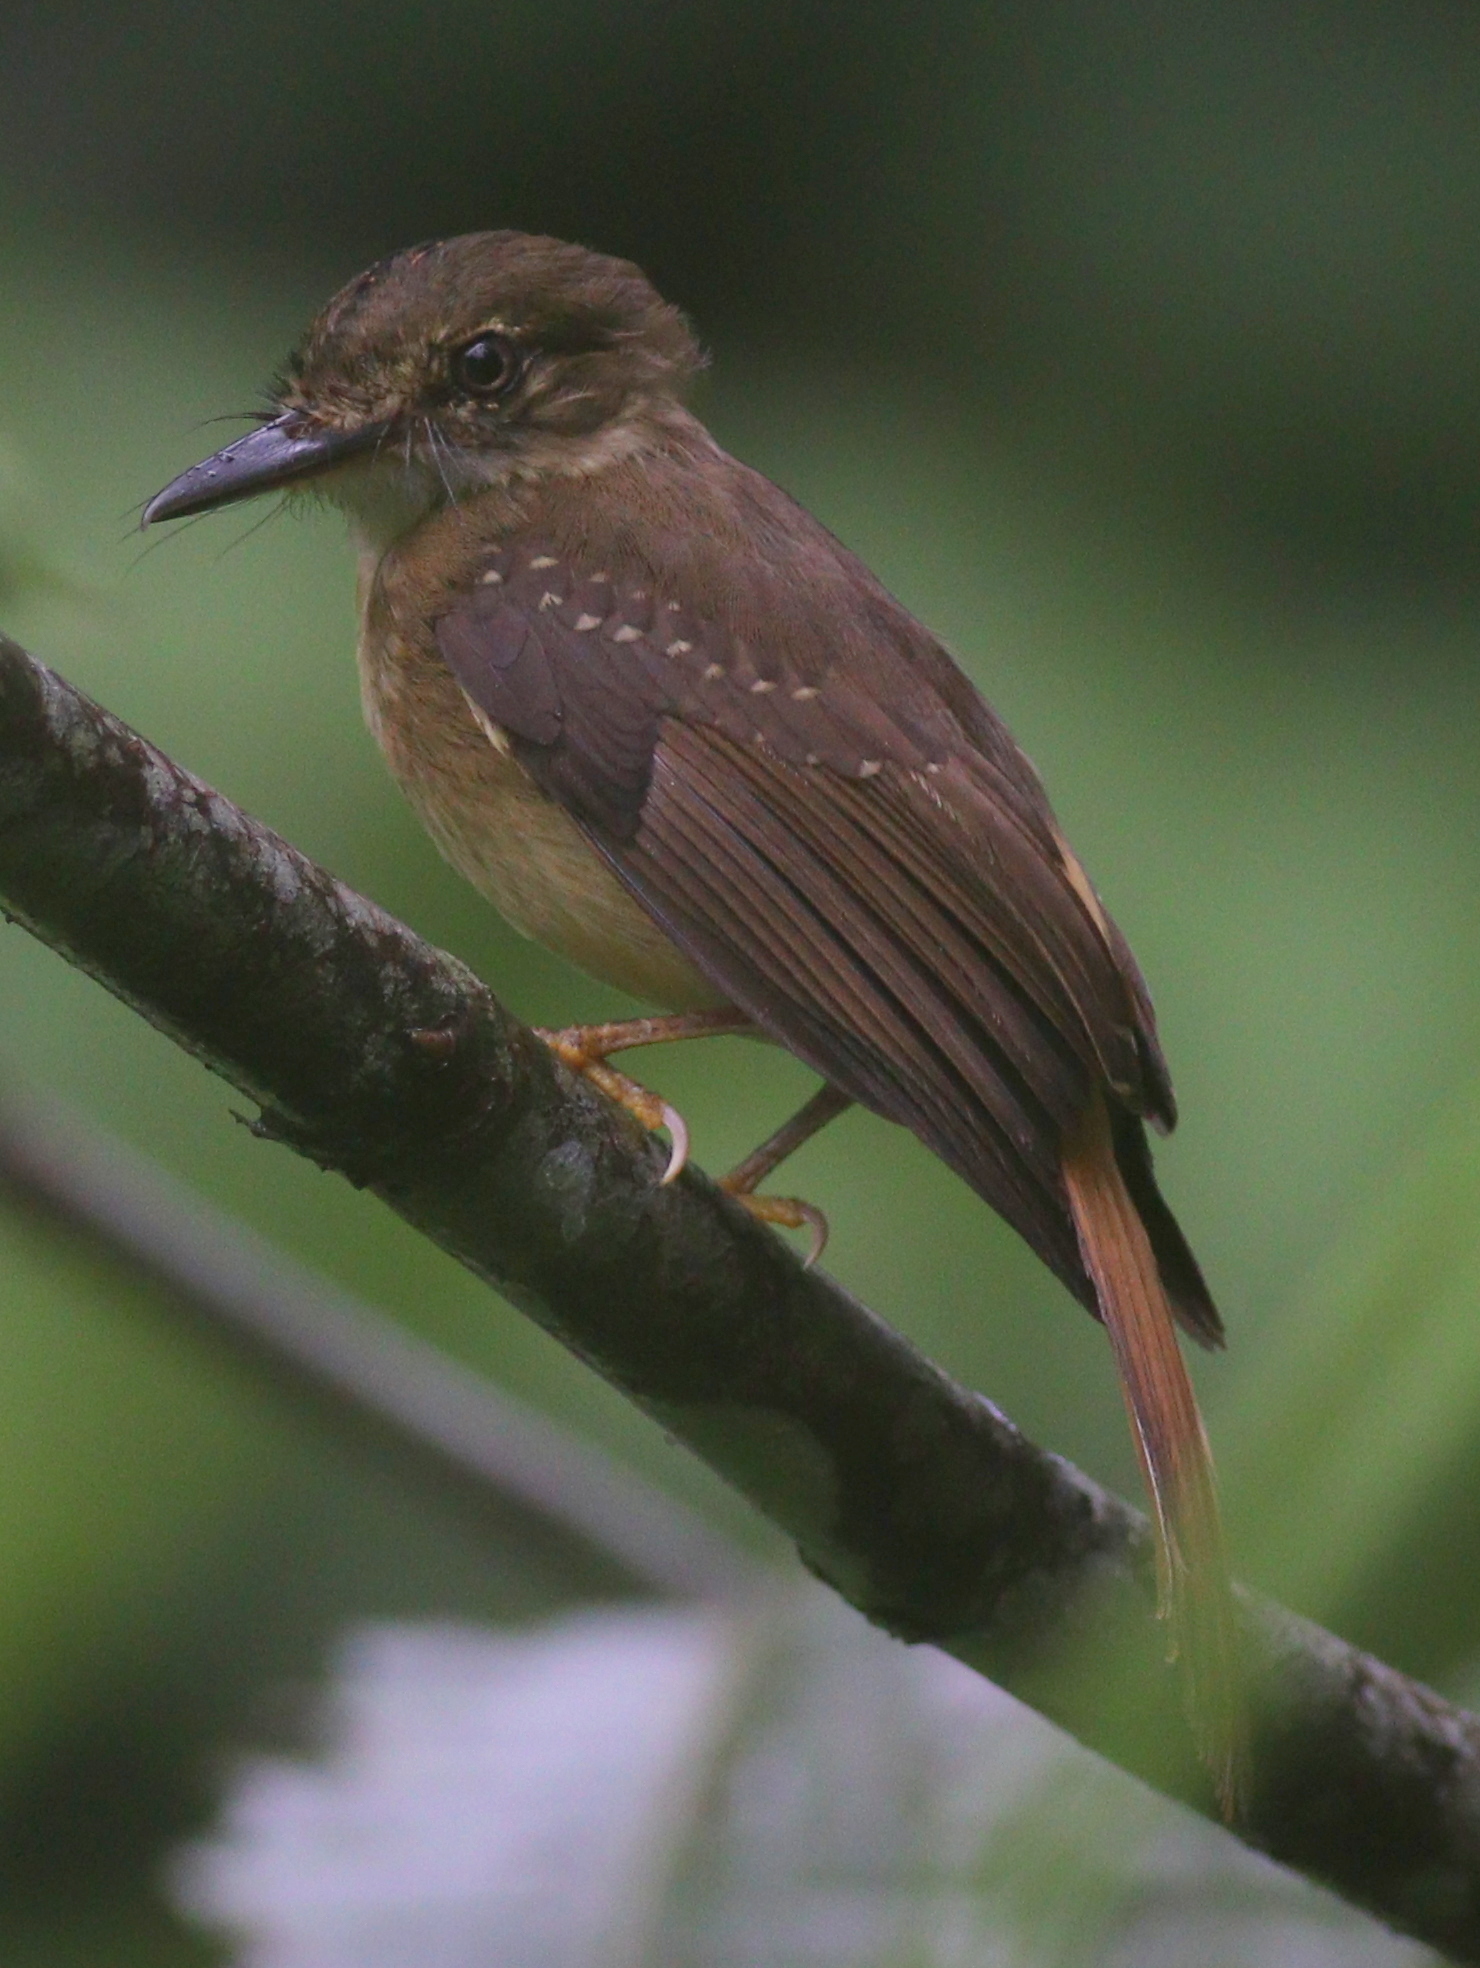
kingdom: Animalia
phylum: Chordata
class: Aves
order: Passeriformes
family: Tyrannidae
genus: Onychorhynchus
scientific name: Onychorhynchus coronatus
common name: Royal flycatcher
